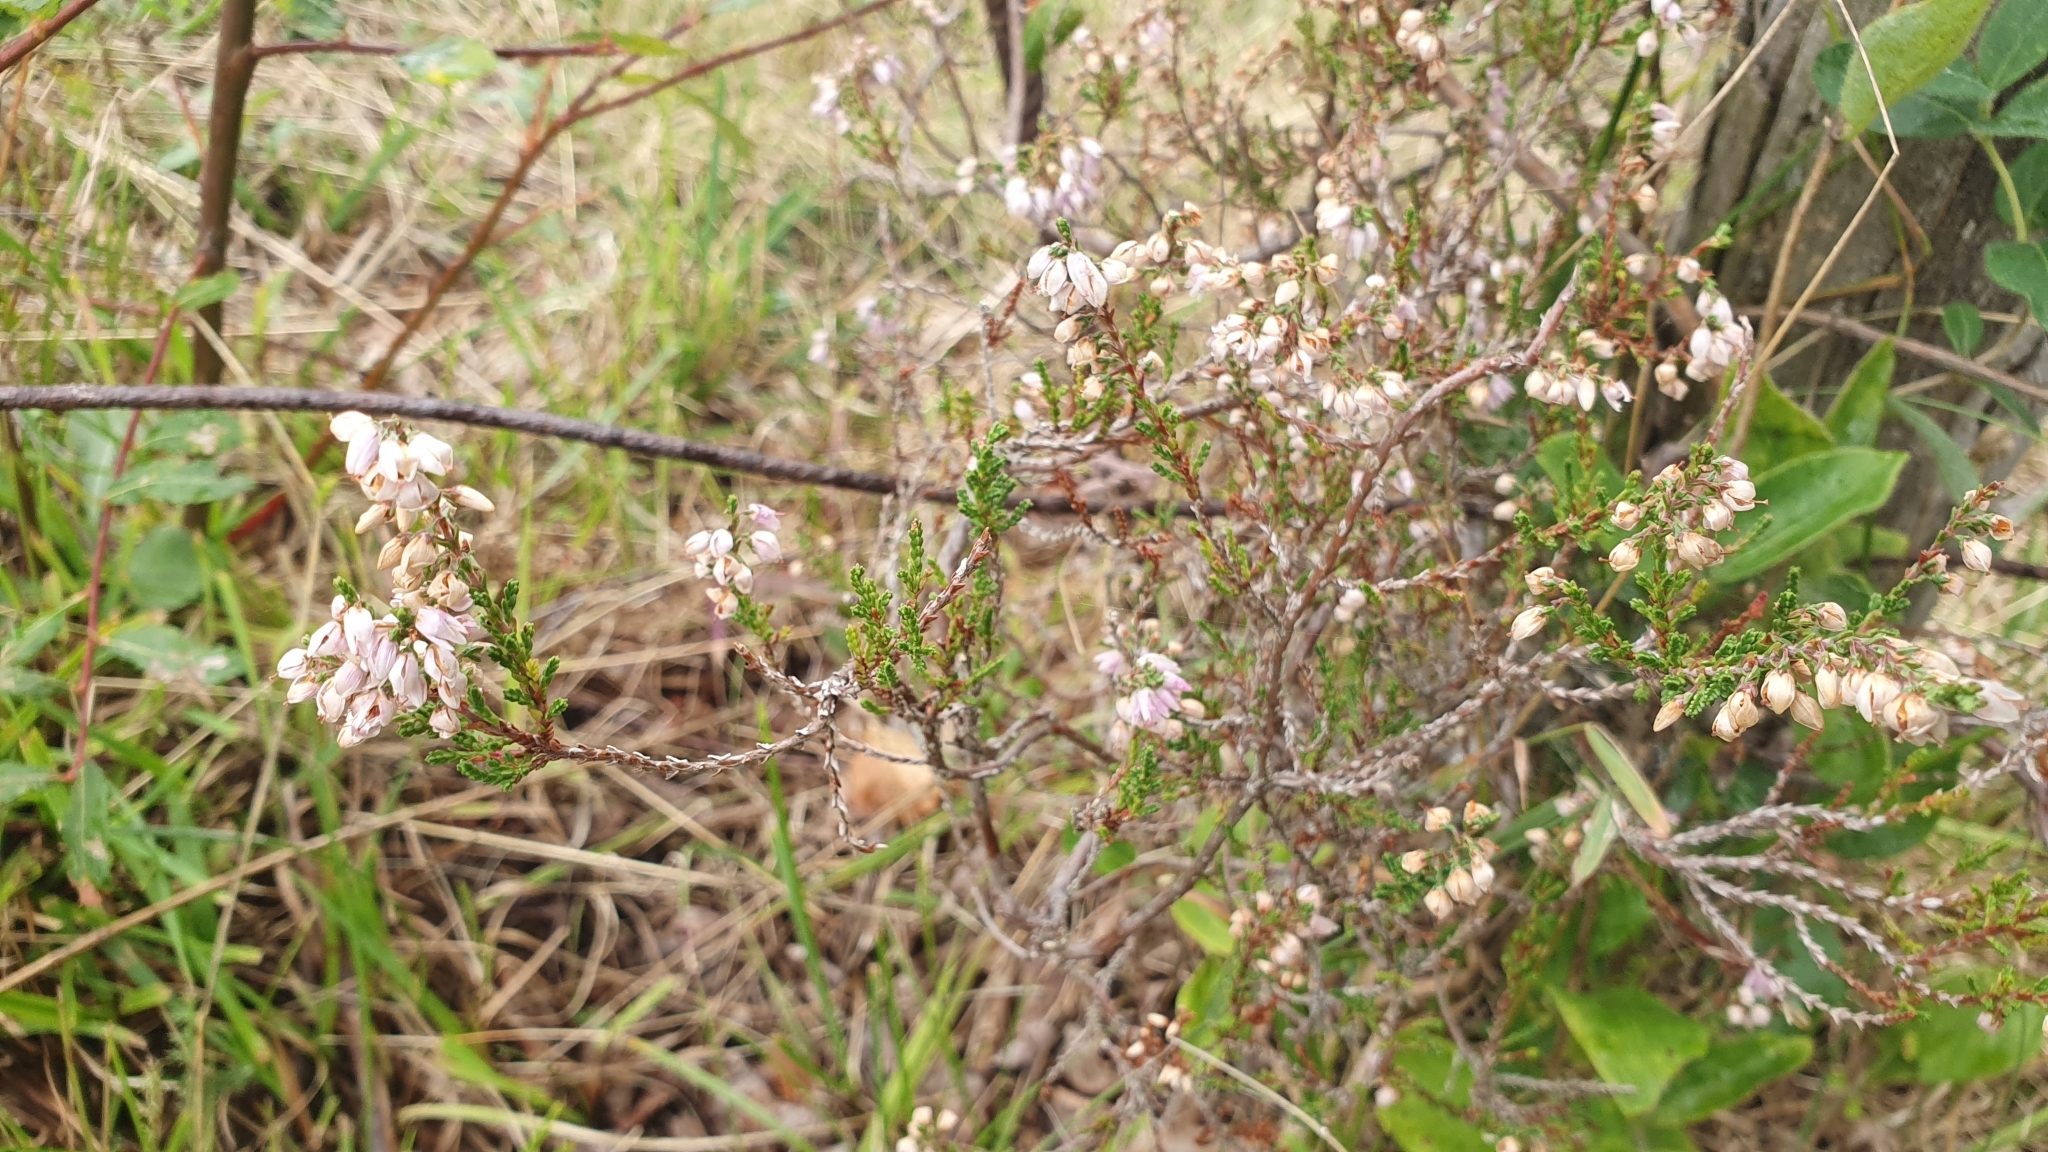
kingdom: Plantae
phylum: Tracheophyta
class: Magnoliopsida
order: Ericales
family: Ericaceae
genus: Calluna
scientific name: Calluna vulgaris
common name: Heather
